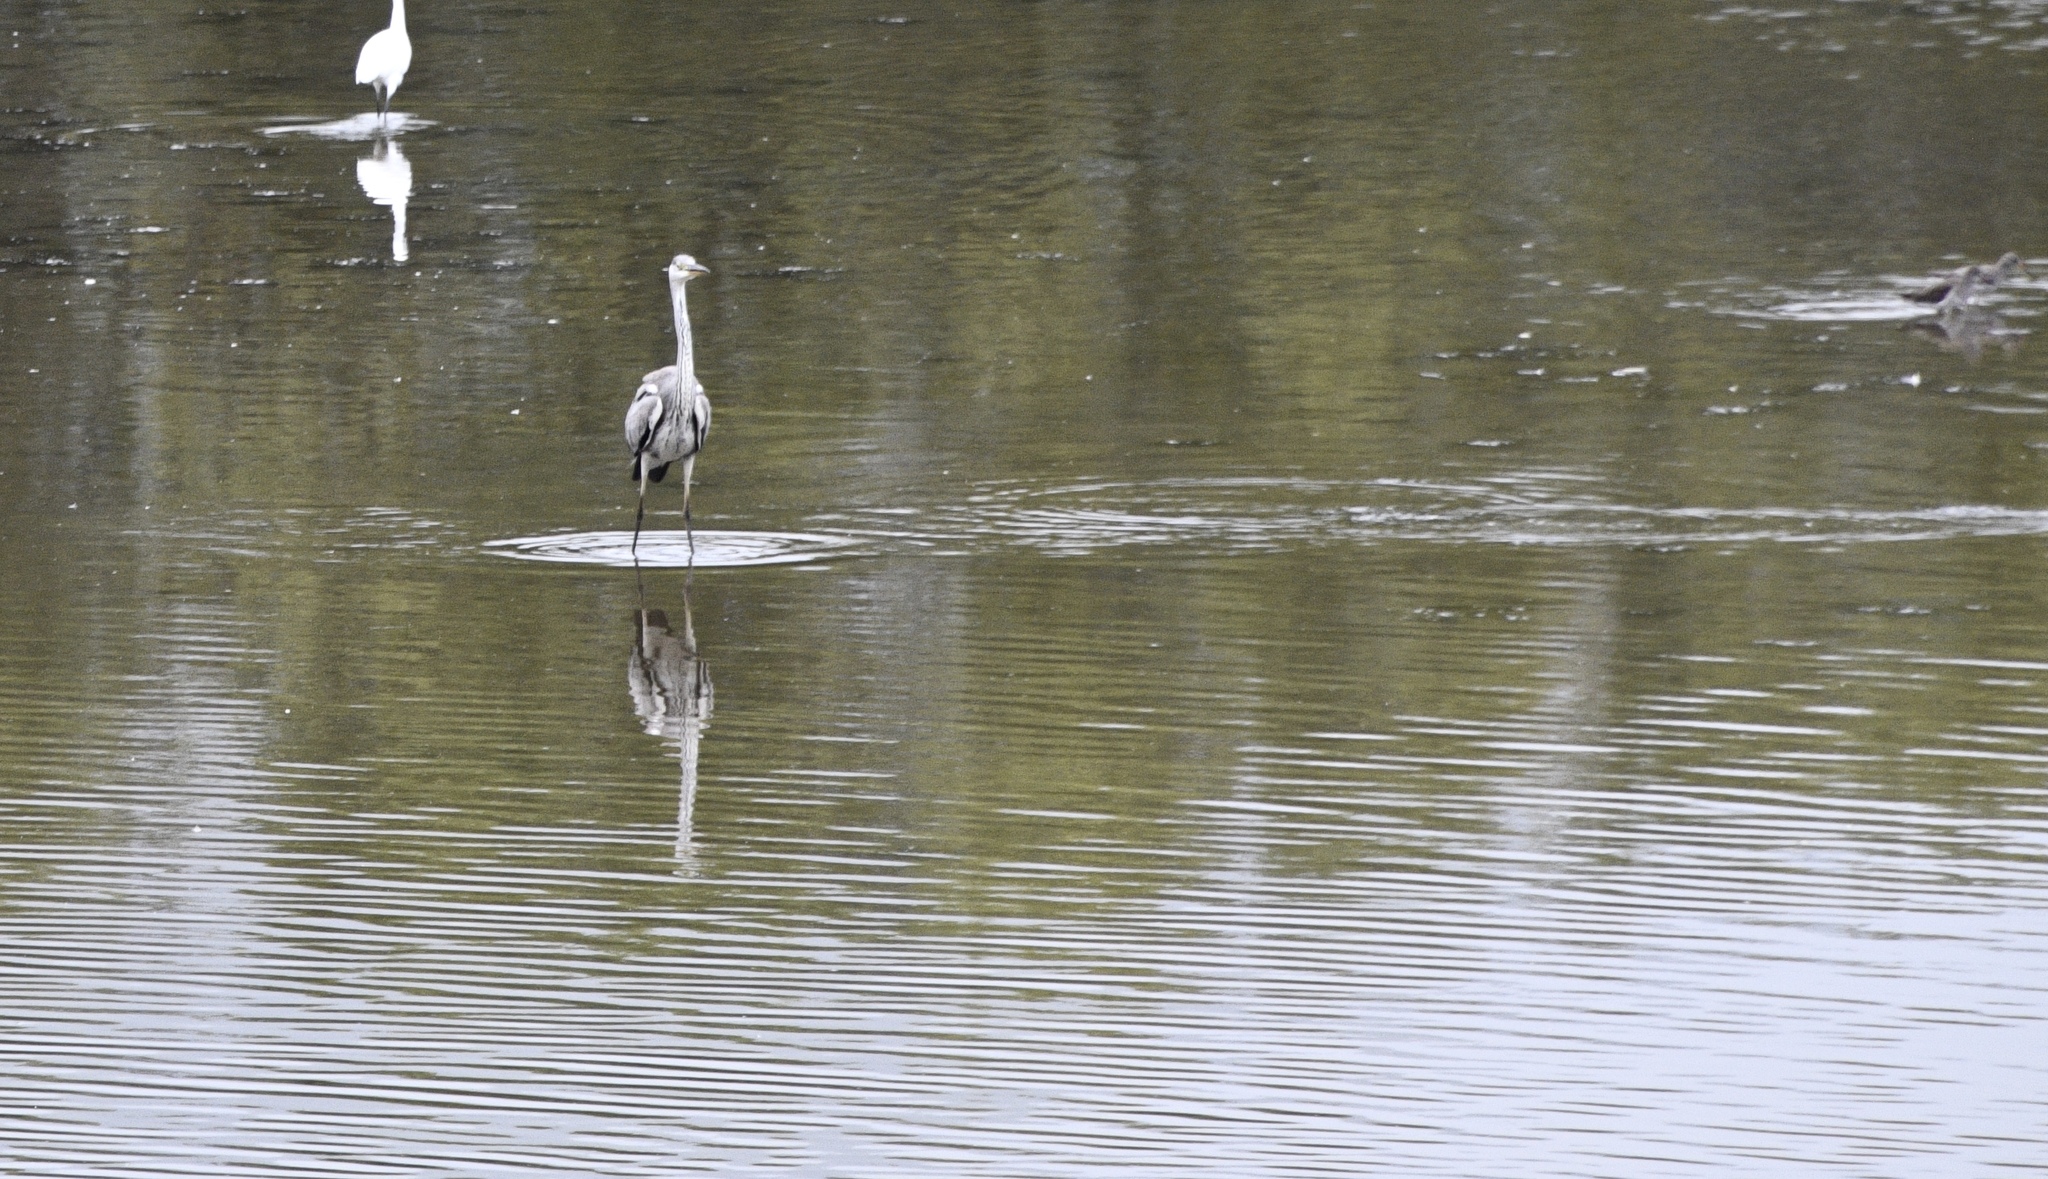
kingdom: Animalia
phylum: Chordata
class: Aves
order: Pelecaniformes
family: Ardeidae
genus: Ardea
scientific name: Ardea cinerea
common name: Grey heron
